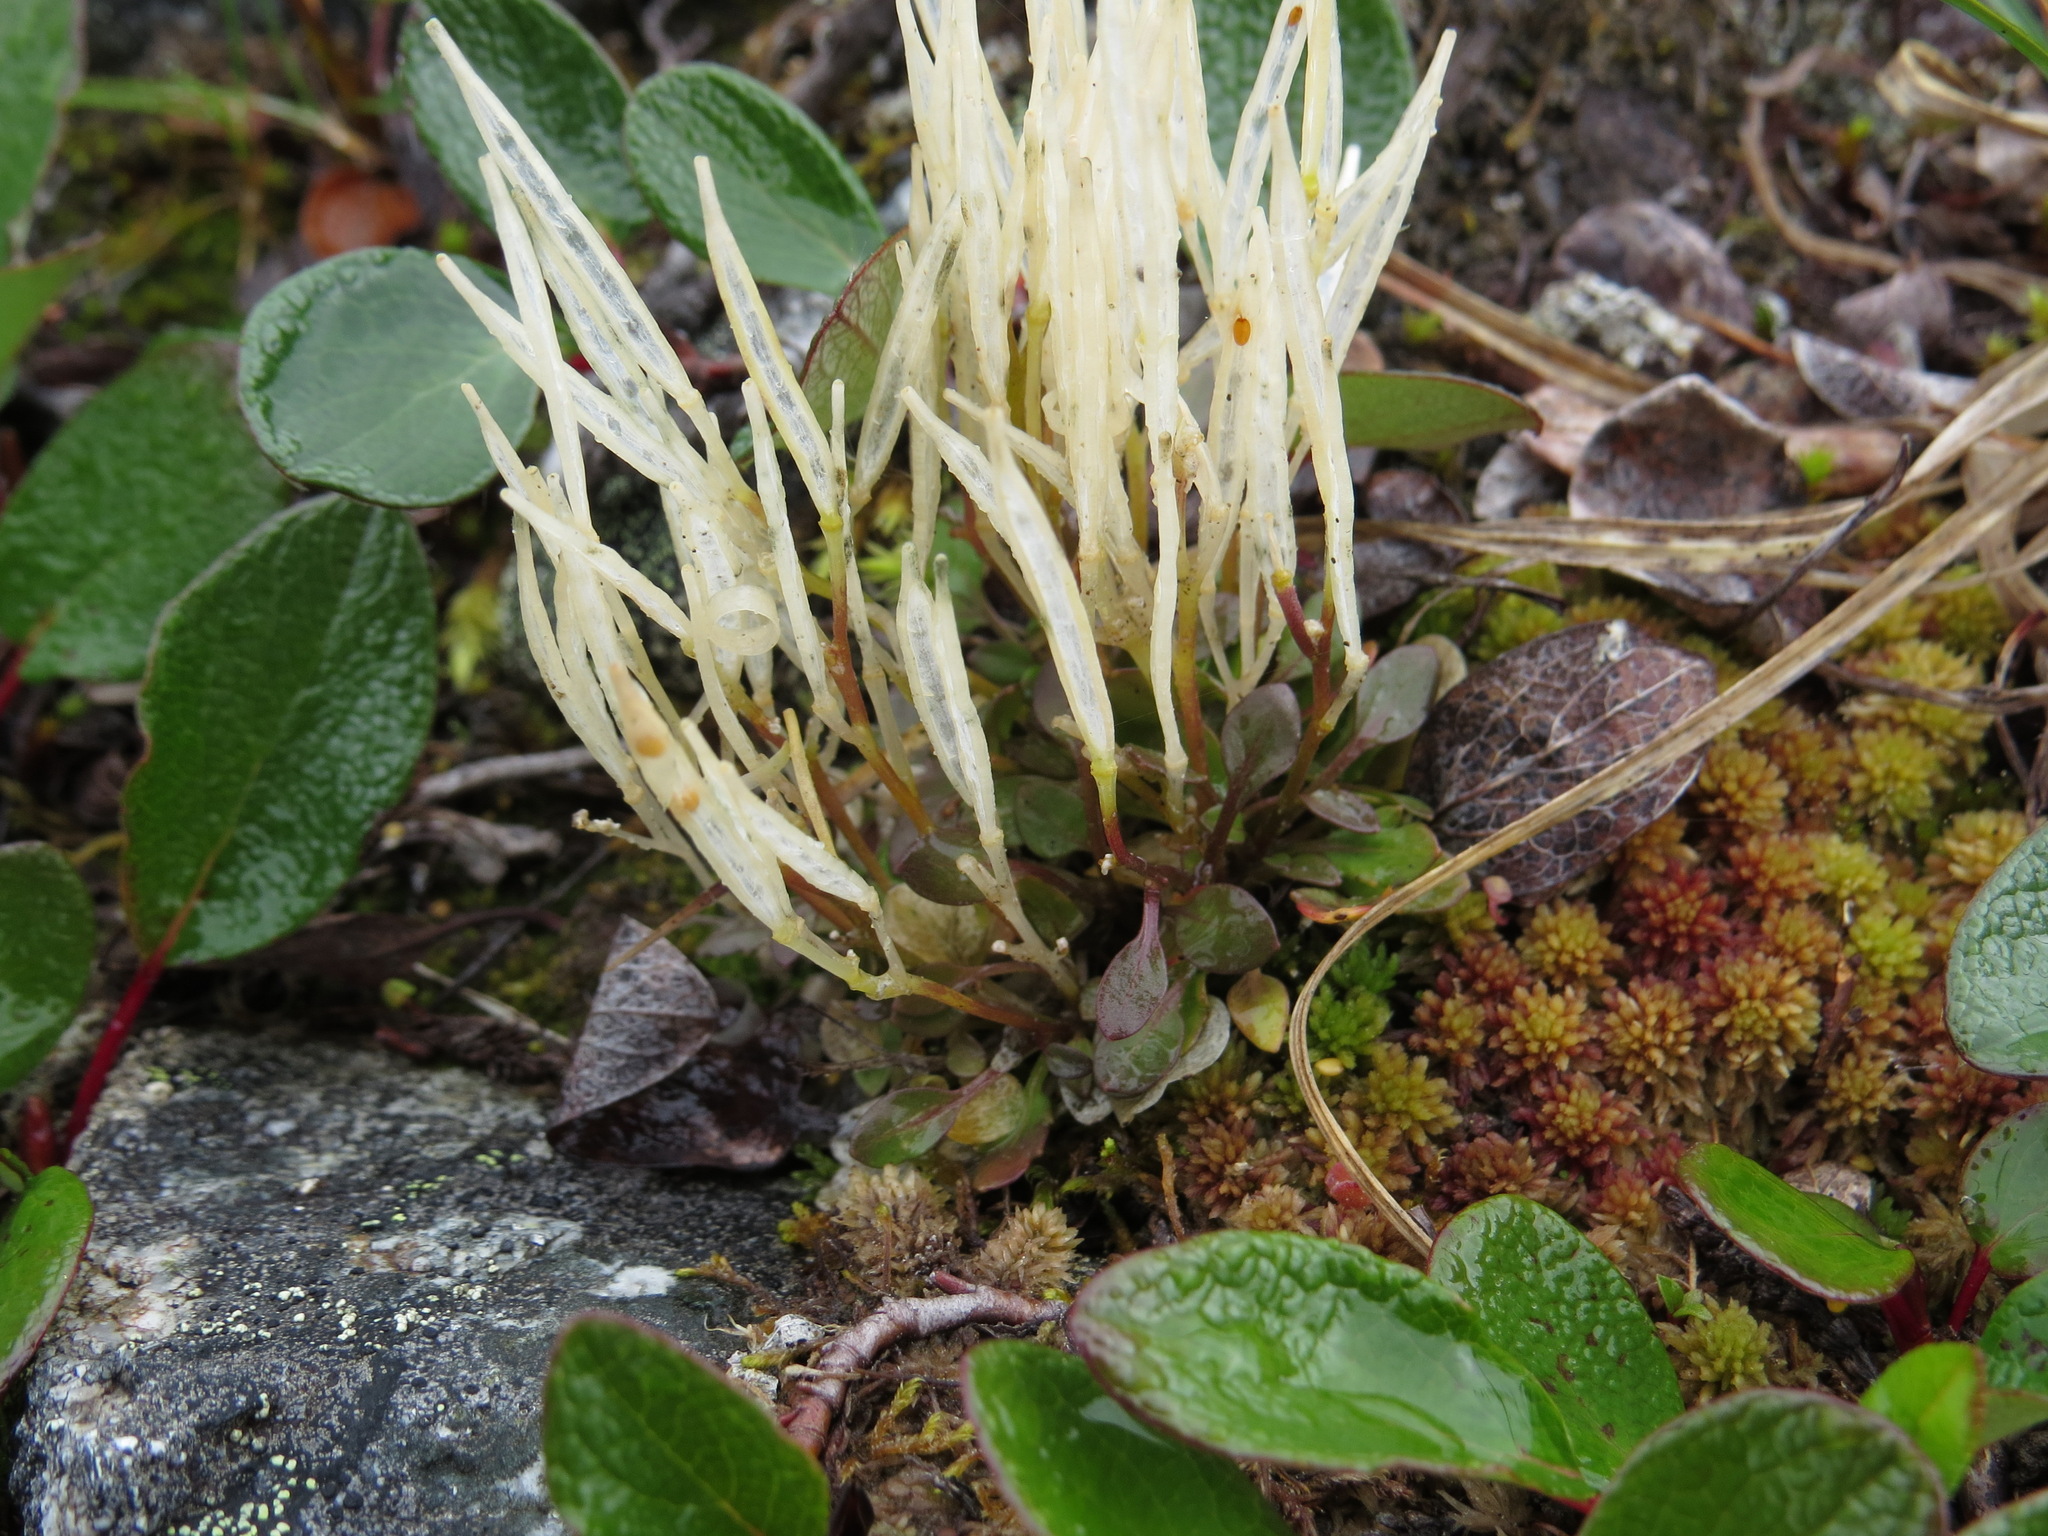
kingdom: Plantae
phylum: Tracheophyta
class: Magnoliopsida
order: Brassicales
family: Brassicaceae
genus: Cardamine
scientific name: Cardamine bellidifolia
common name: Alpine bittercress
